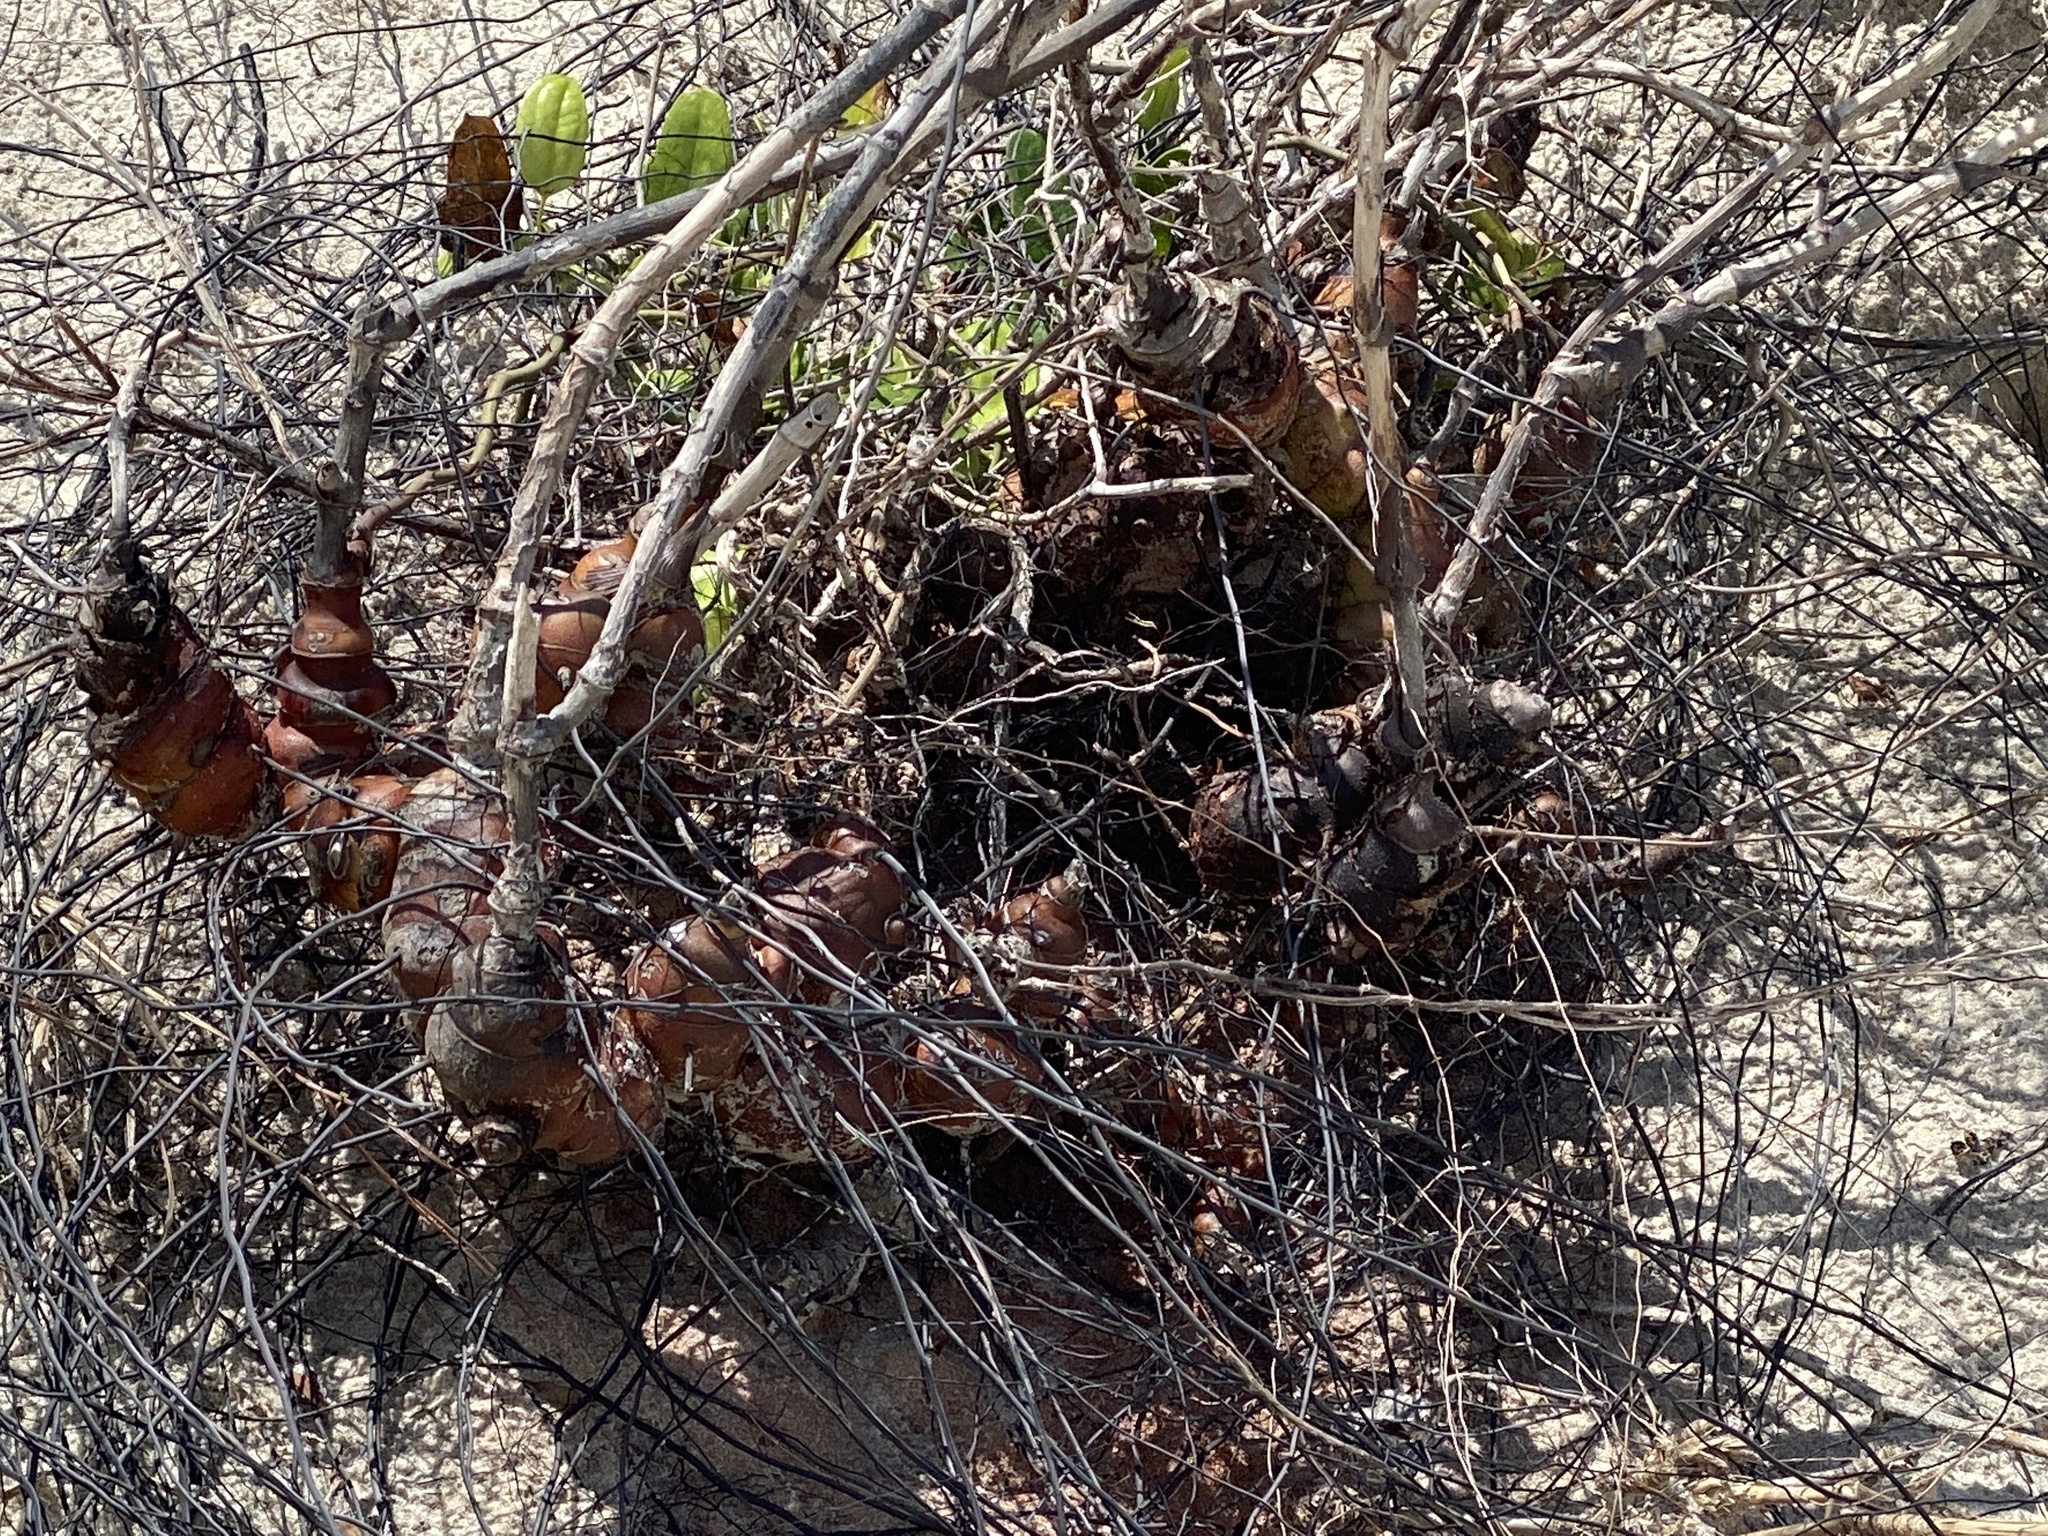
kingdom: Plantae
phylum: Tracheophyta
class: Liliopsida
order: Liliales
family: Smilacaceae
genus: Smilax
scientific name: Smilax auriculata
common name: Wild bamboo
